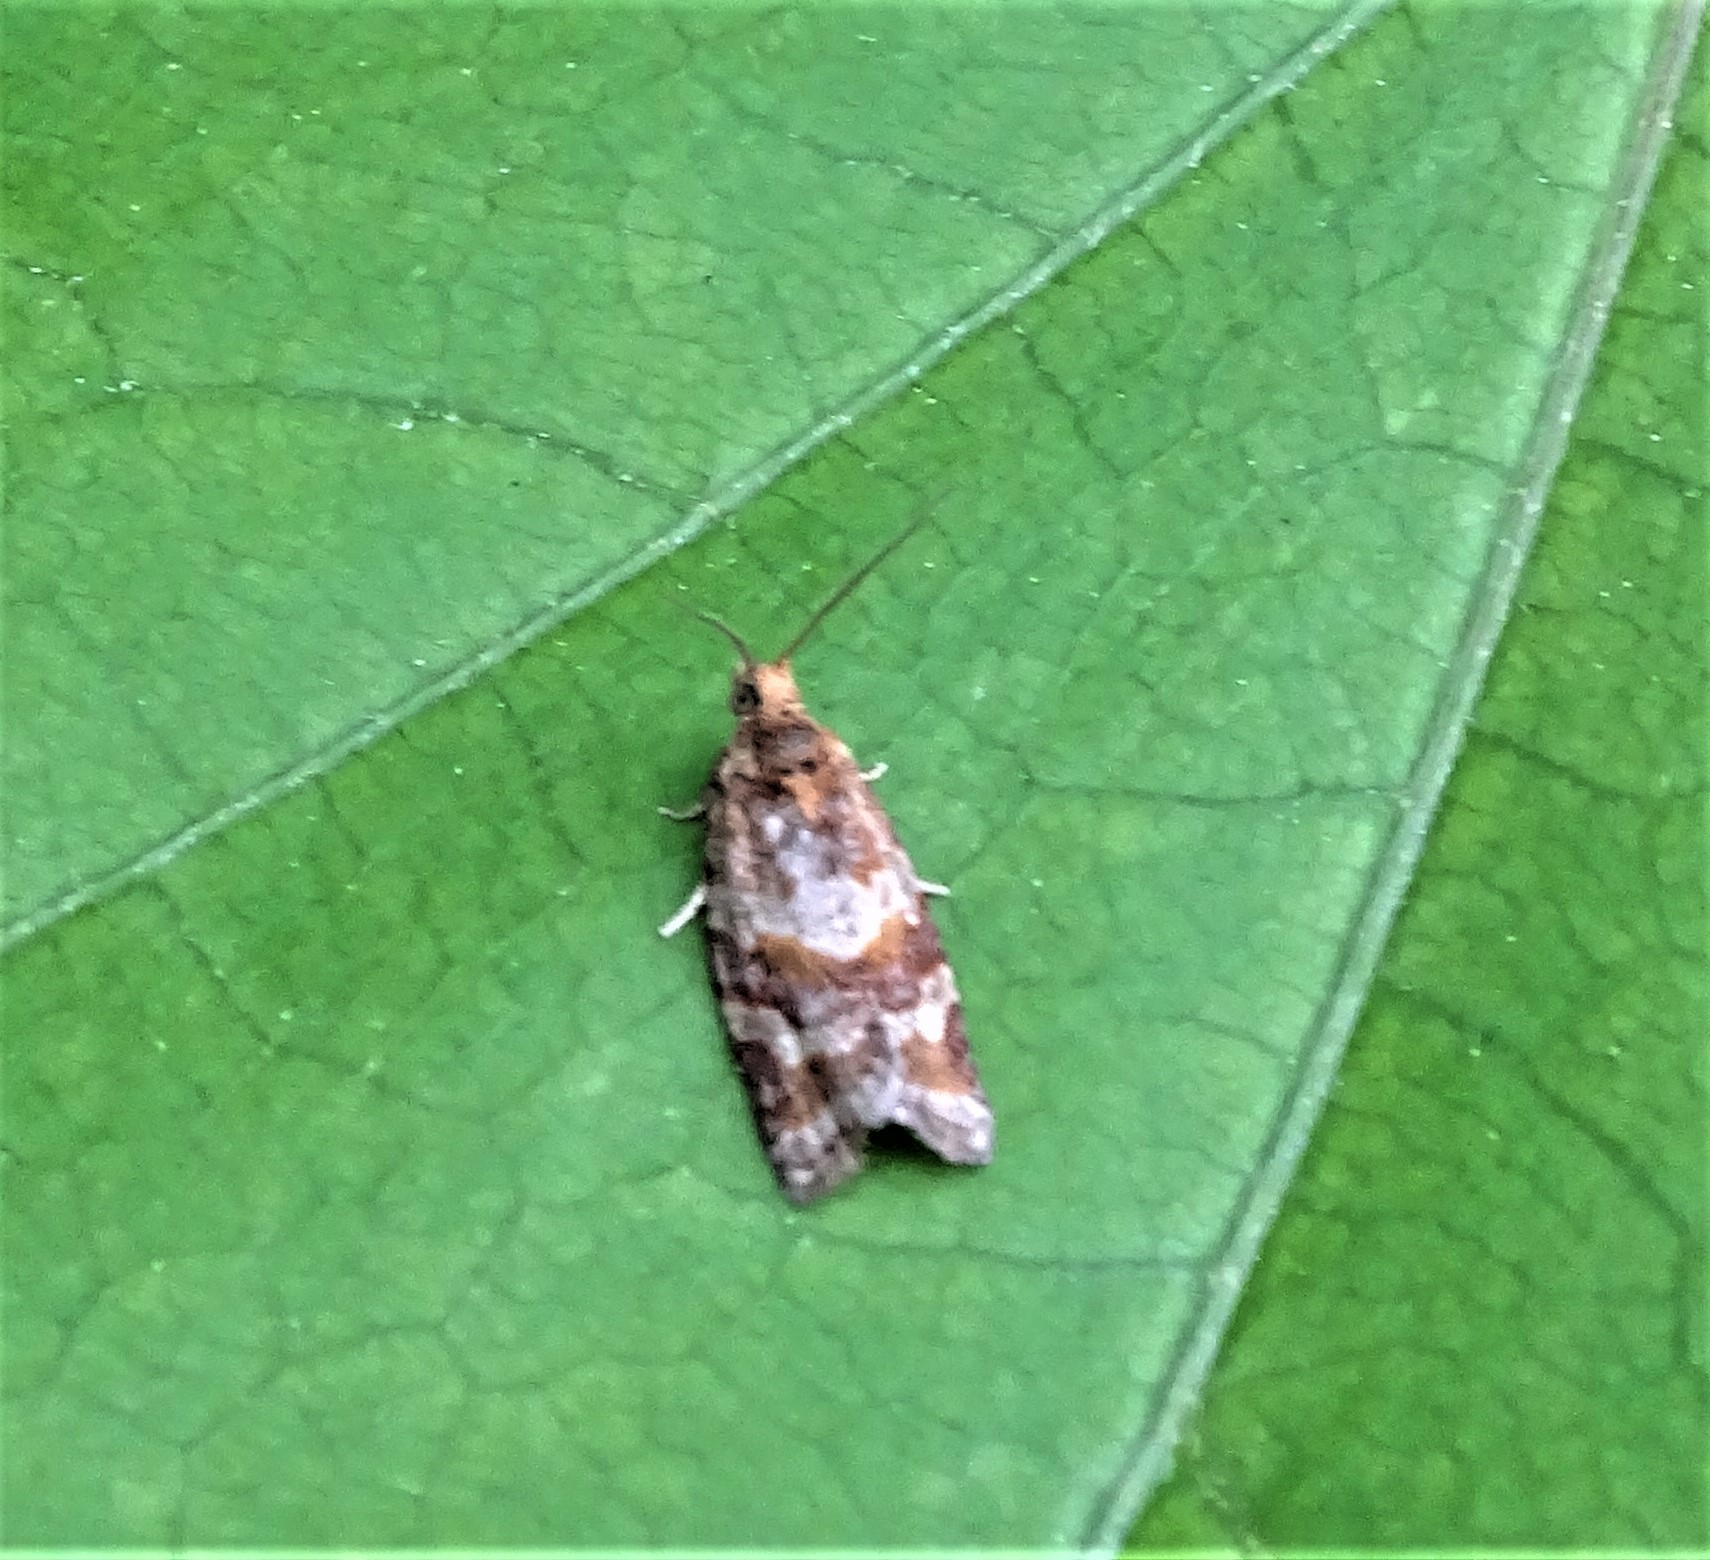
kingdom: Animalia
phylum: Arthropoda
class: Insecta
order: Lepidoptera
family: Tortricidae
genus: Argyrotaenia
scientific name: Argyrotaenia pinatubana
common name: Pine tube moth
